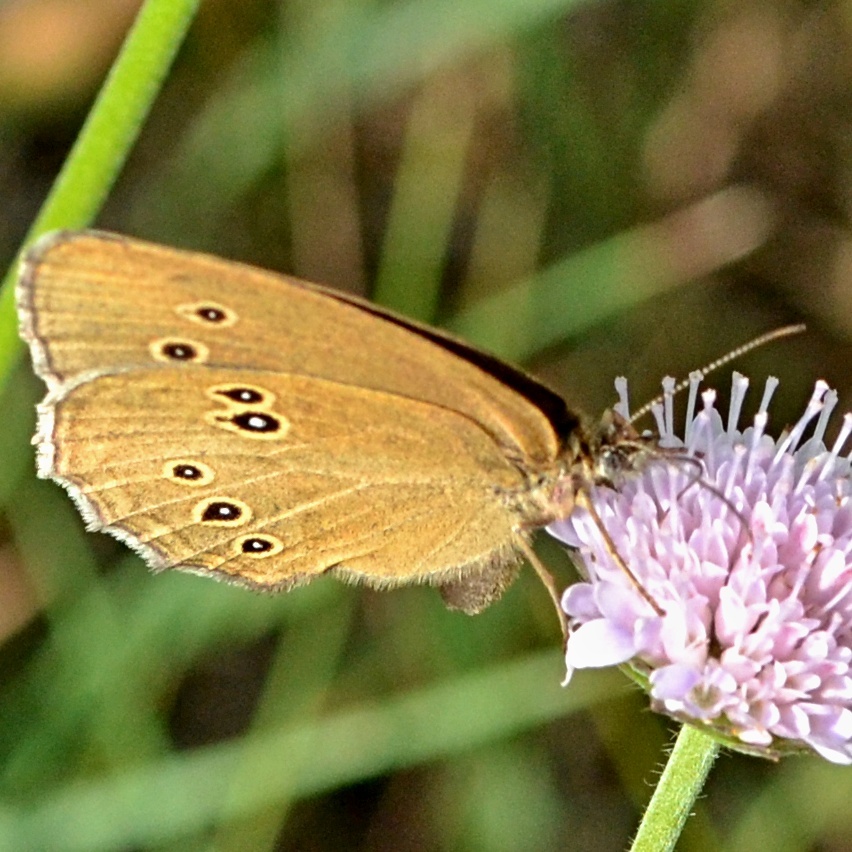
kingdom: Animalia
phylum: Arthropoda
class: Insecta
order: Lepidoptera
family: Nymphalidae
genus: Aphantopus
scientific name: Aphantopus hyperantus
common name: Ringlet
